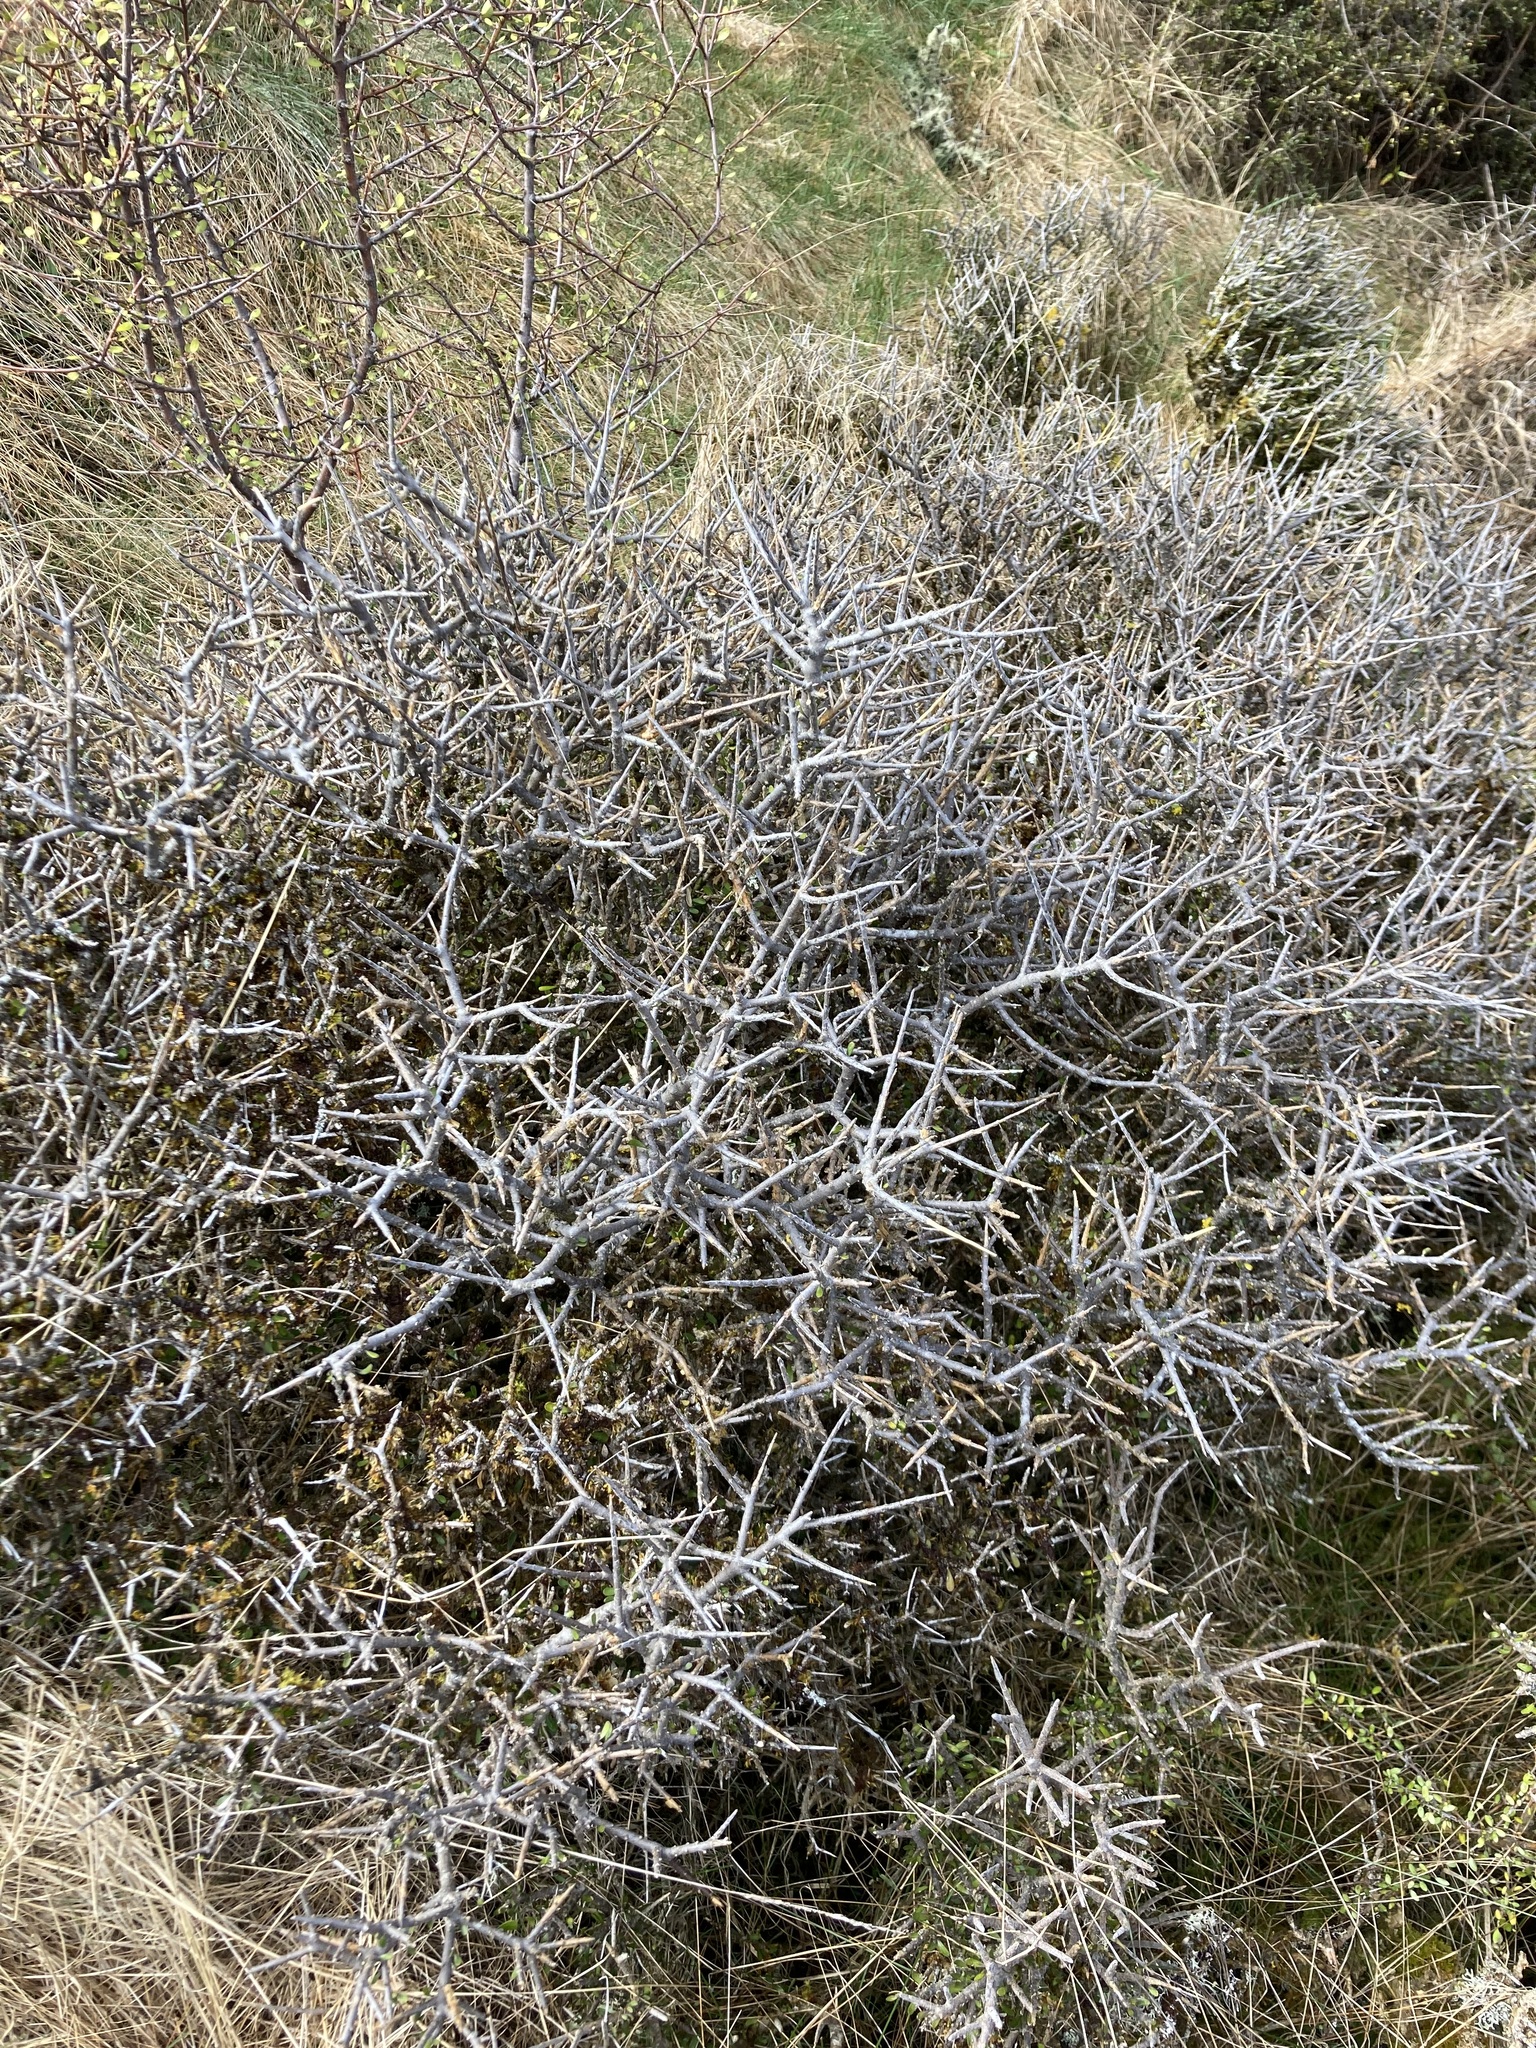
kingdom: Plantae
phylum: Tracheophyta
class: Magnoliopsida
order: Malpighiales
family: Violaceae
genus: Melicytus
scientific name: Melicytus alpinus
